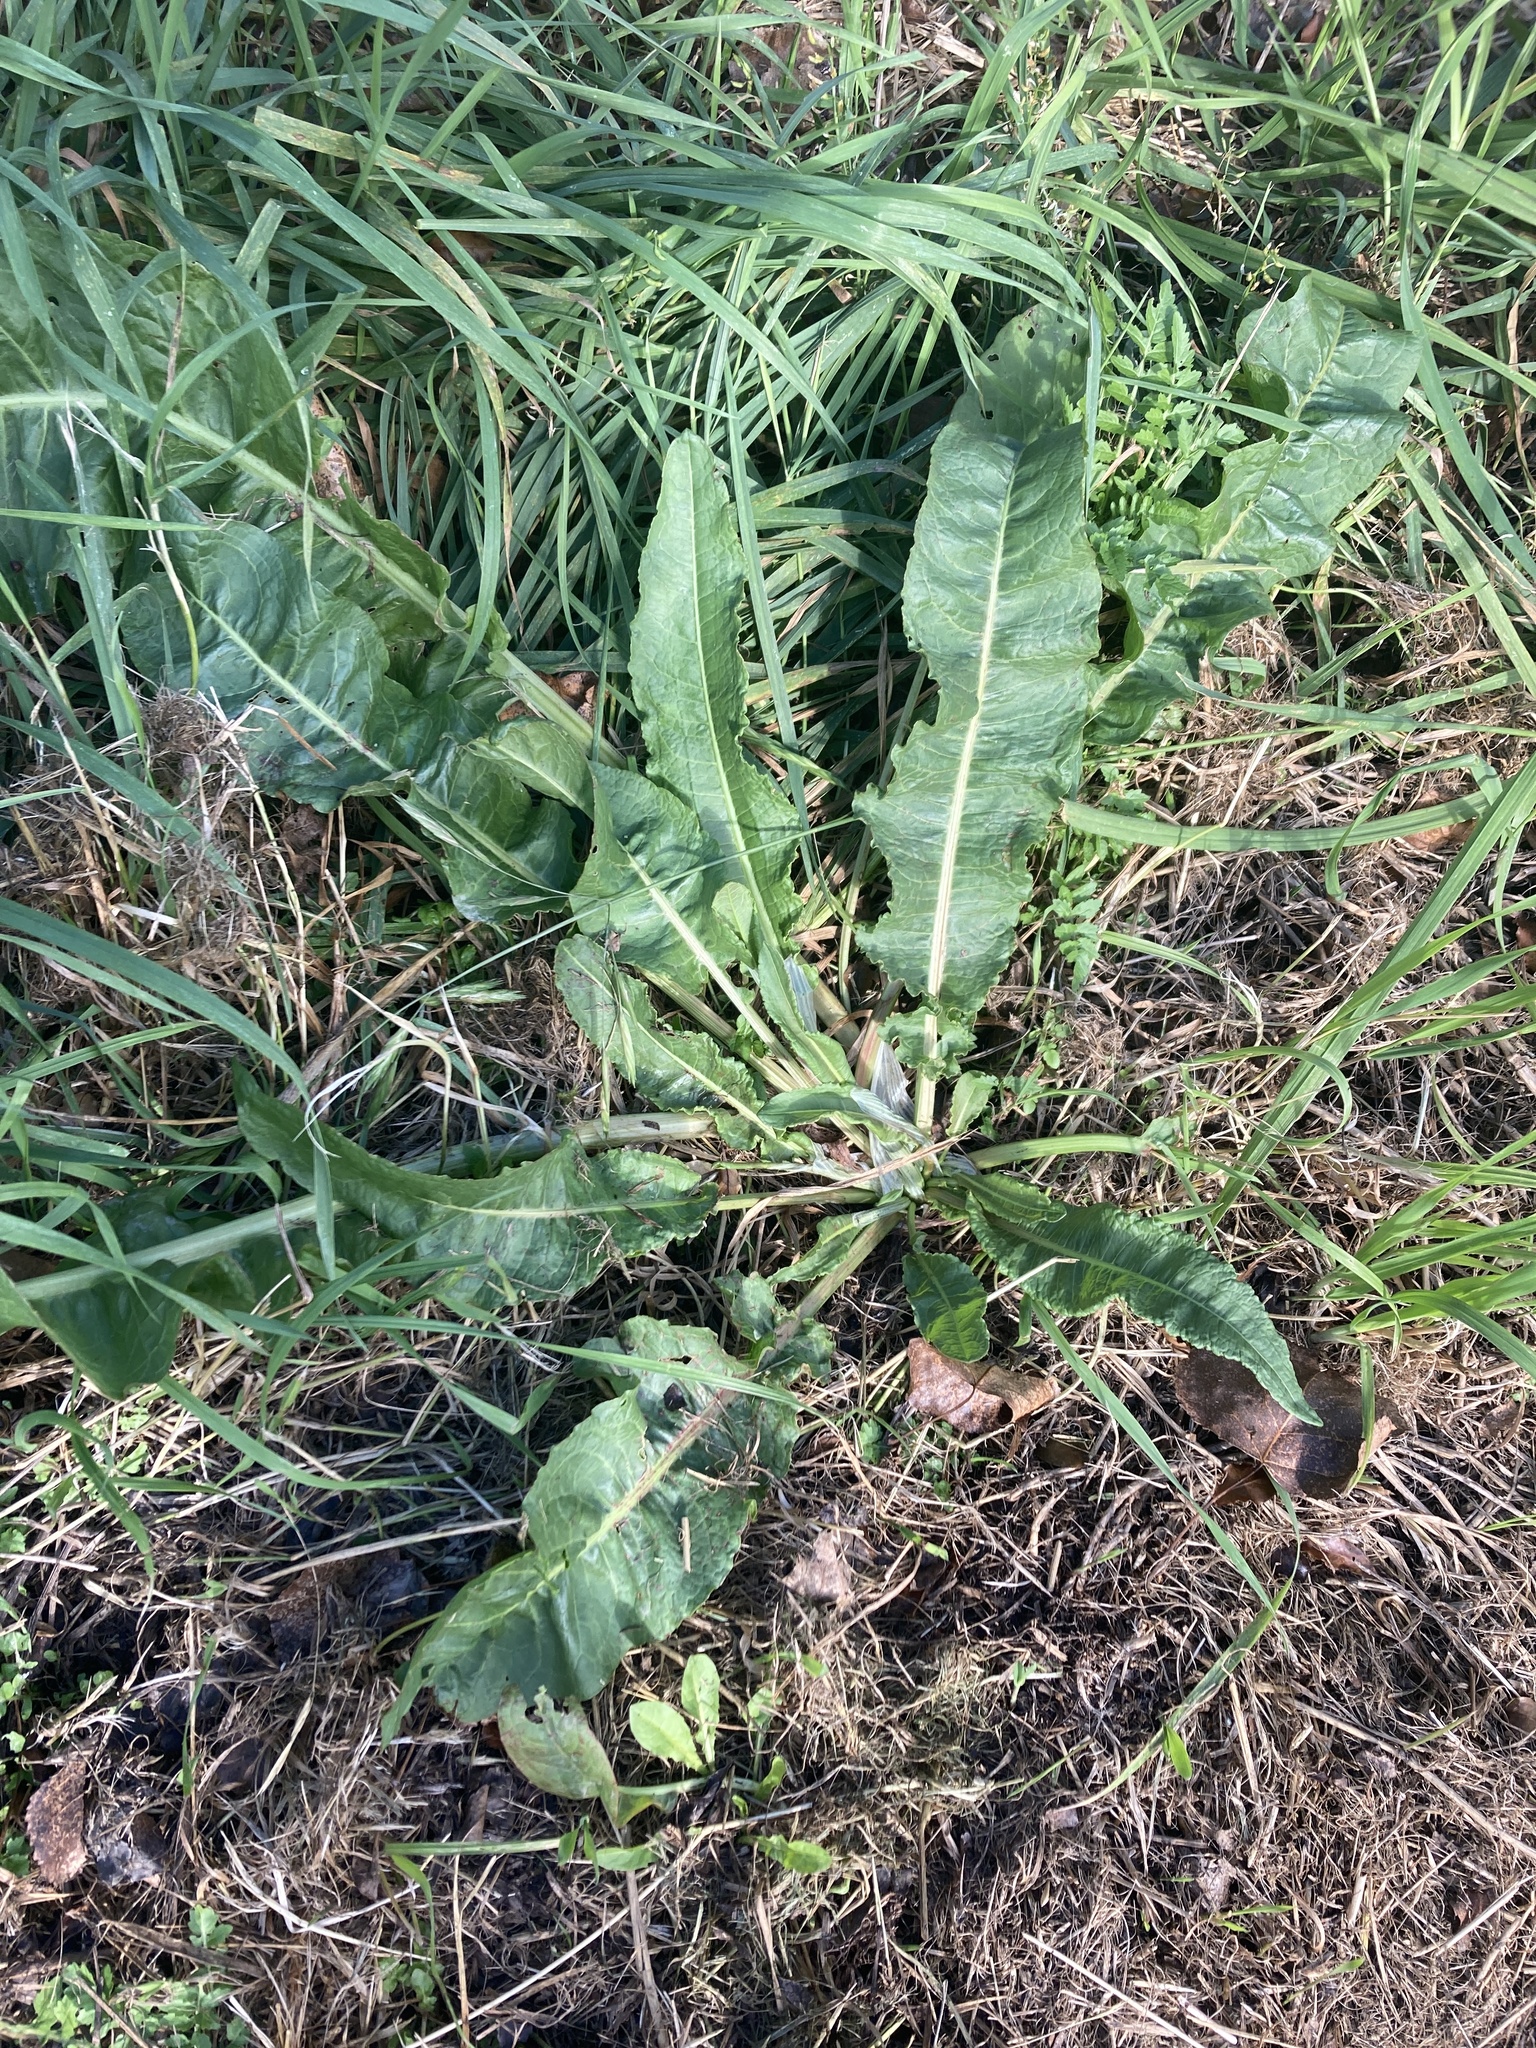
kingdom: Plantae
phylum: Tracheophyta
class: Magnoliopsida
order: Caryophyllales
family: Polygonaceae
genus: Rumex
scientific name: Rumex crispus
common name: Curled dock
